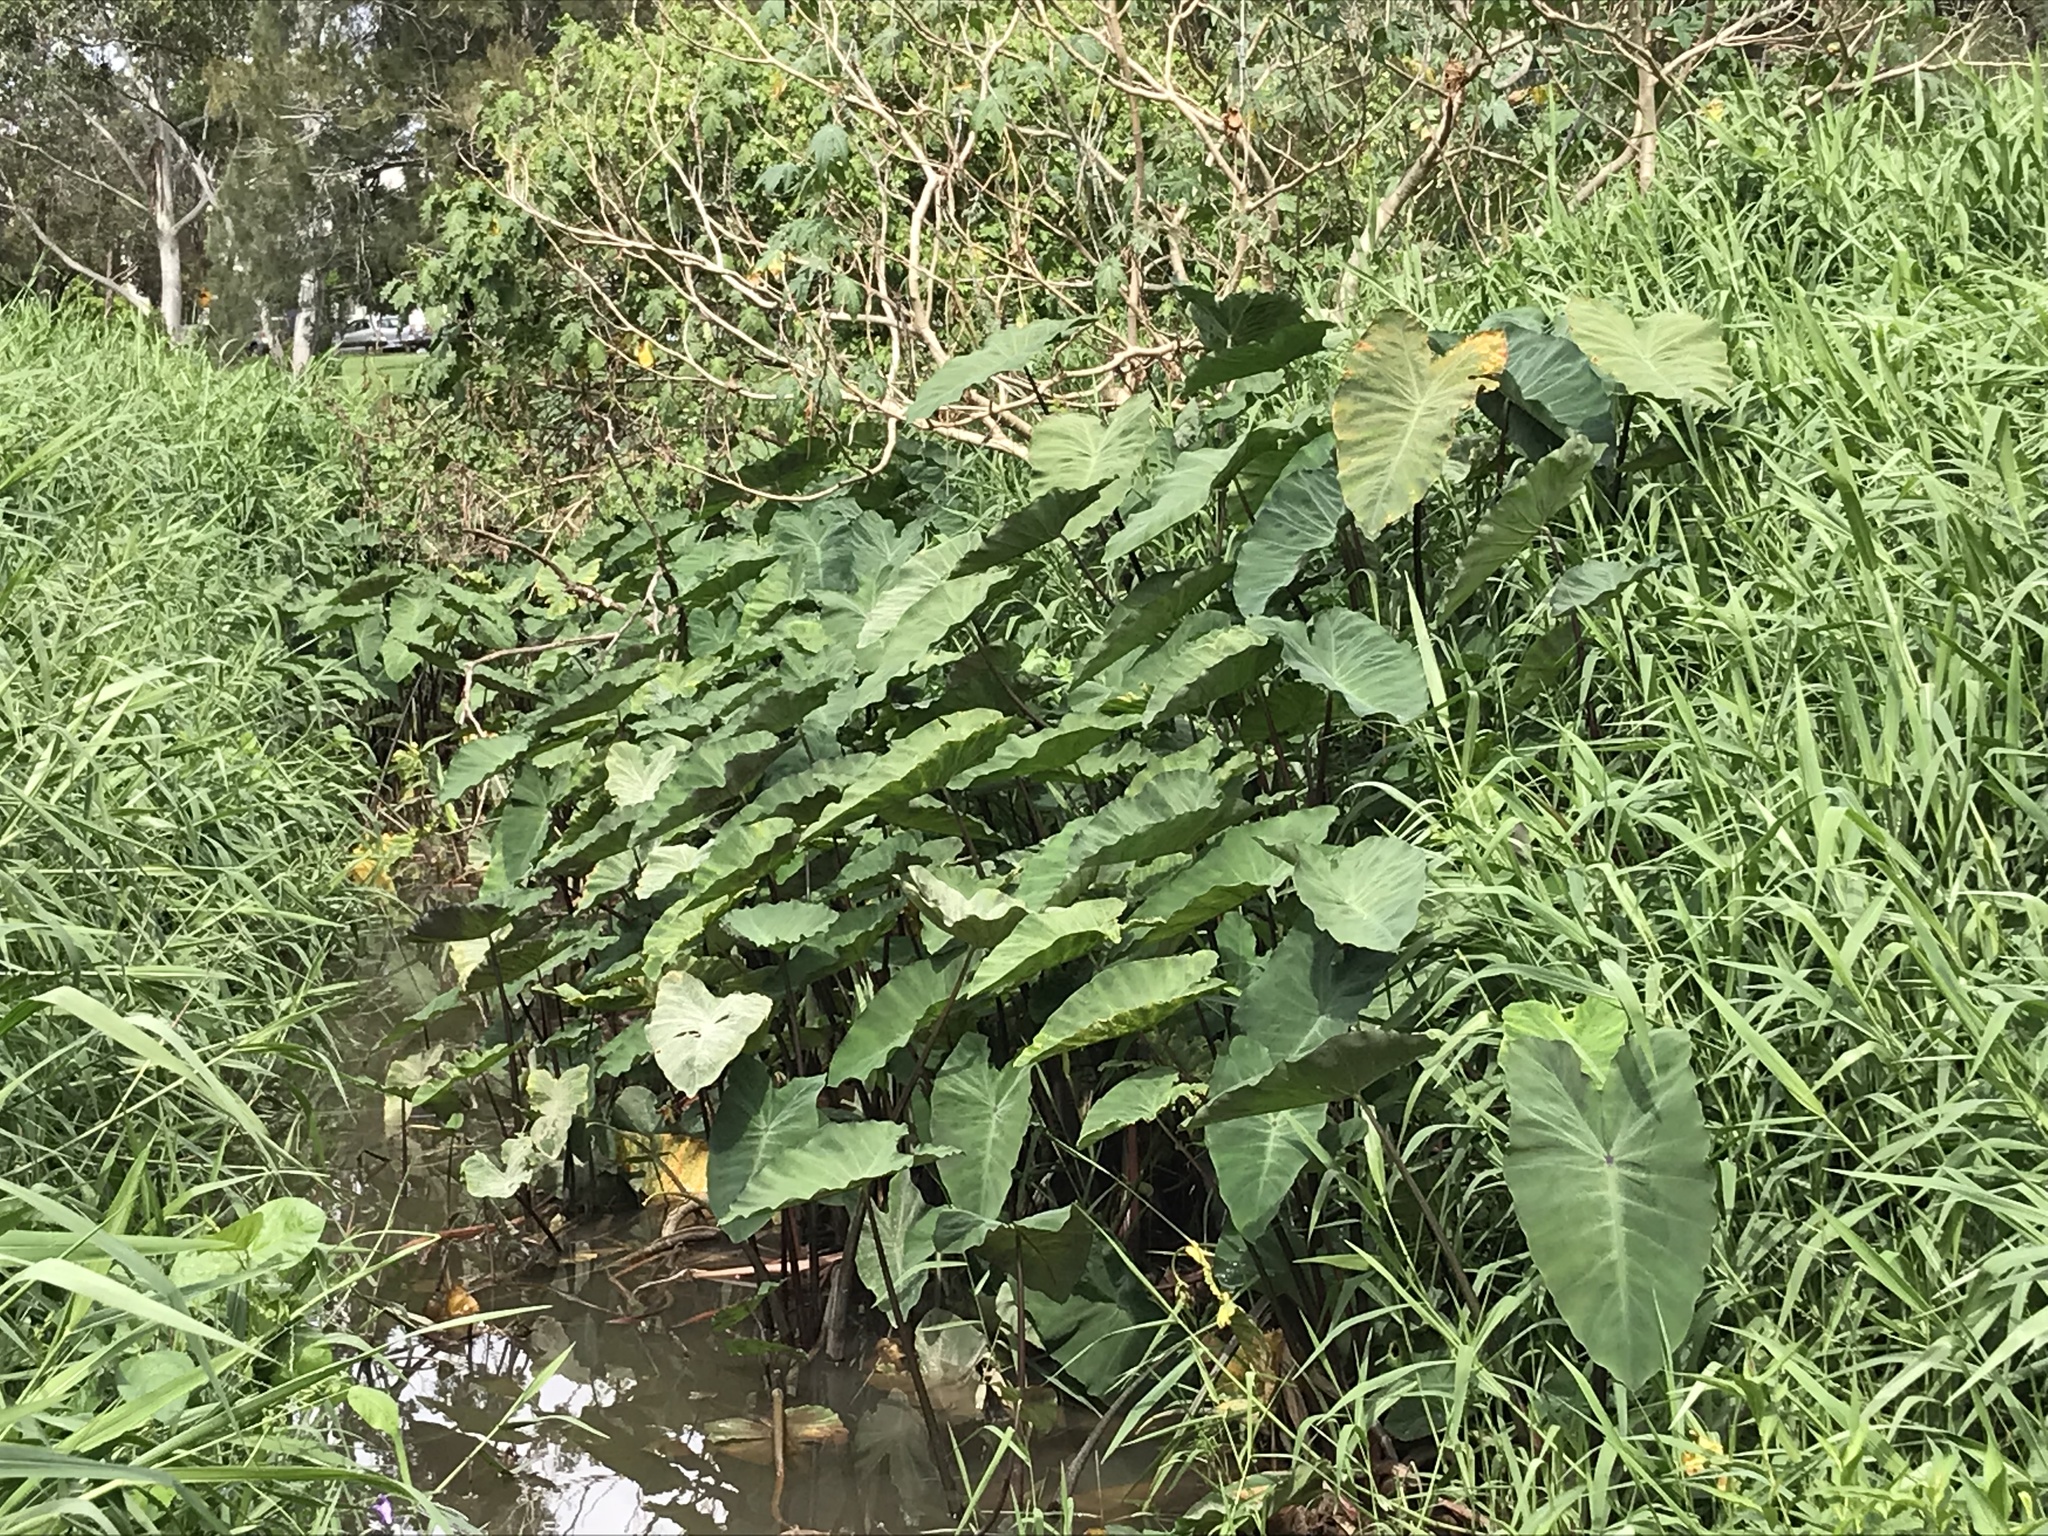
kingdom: Plantae
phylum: Tracheophyta
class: Liliopsida
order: Alismatales
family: Araceae
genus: Colocasia
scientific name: Colocasia esculenta
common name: Taro
